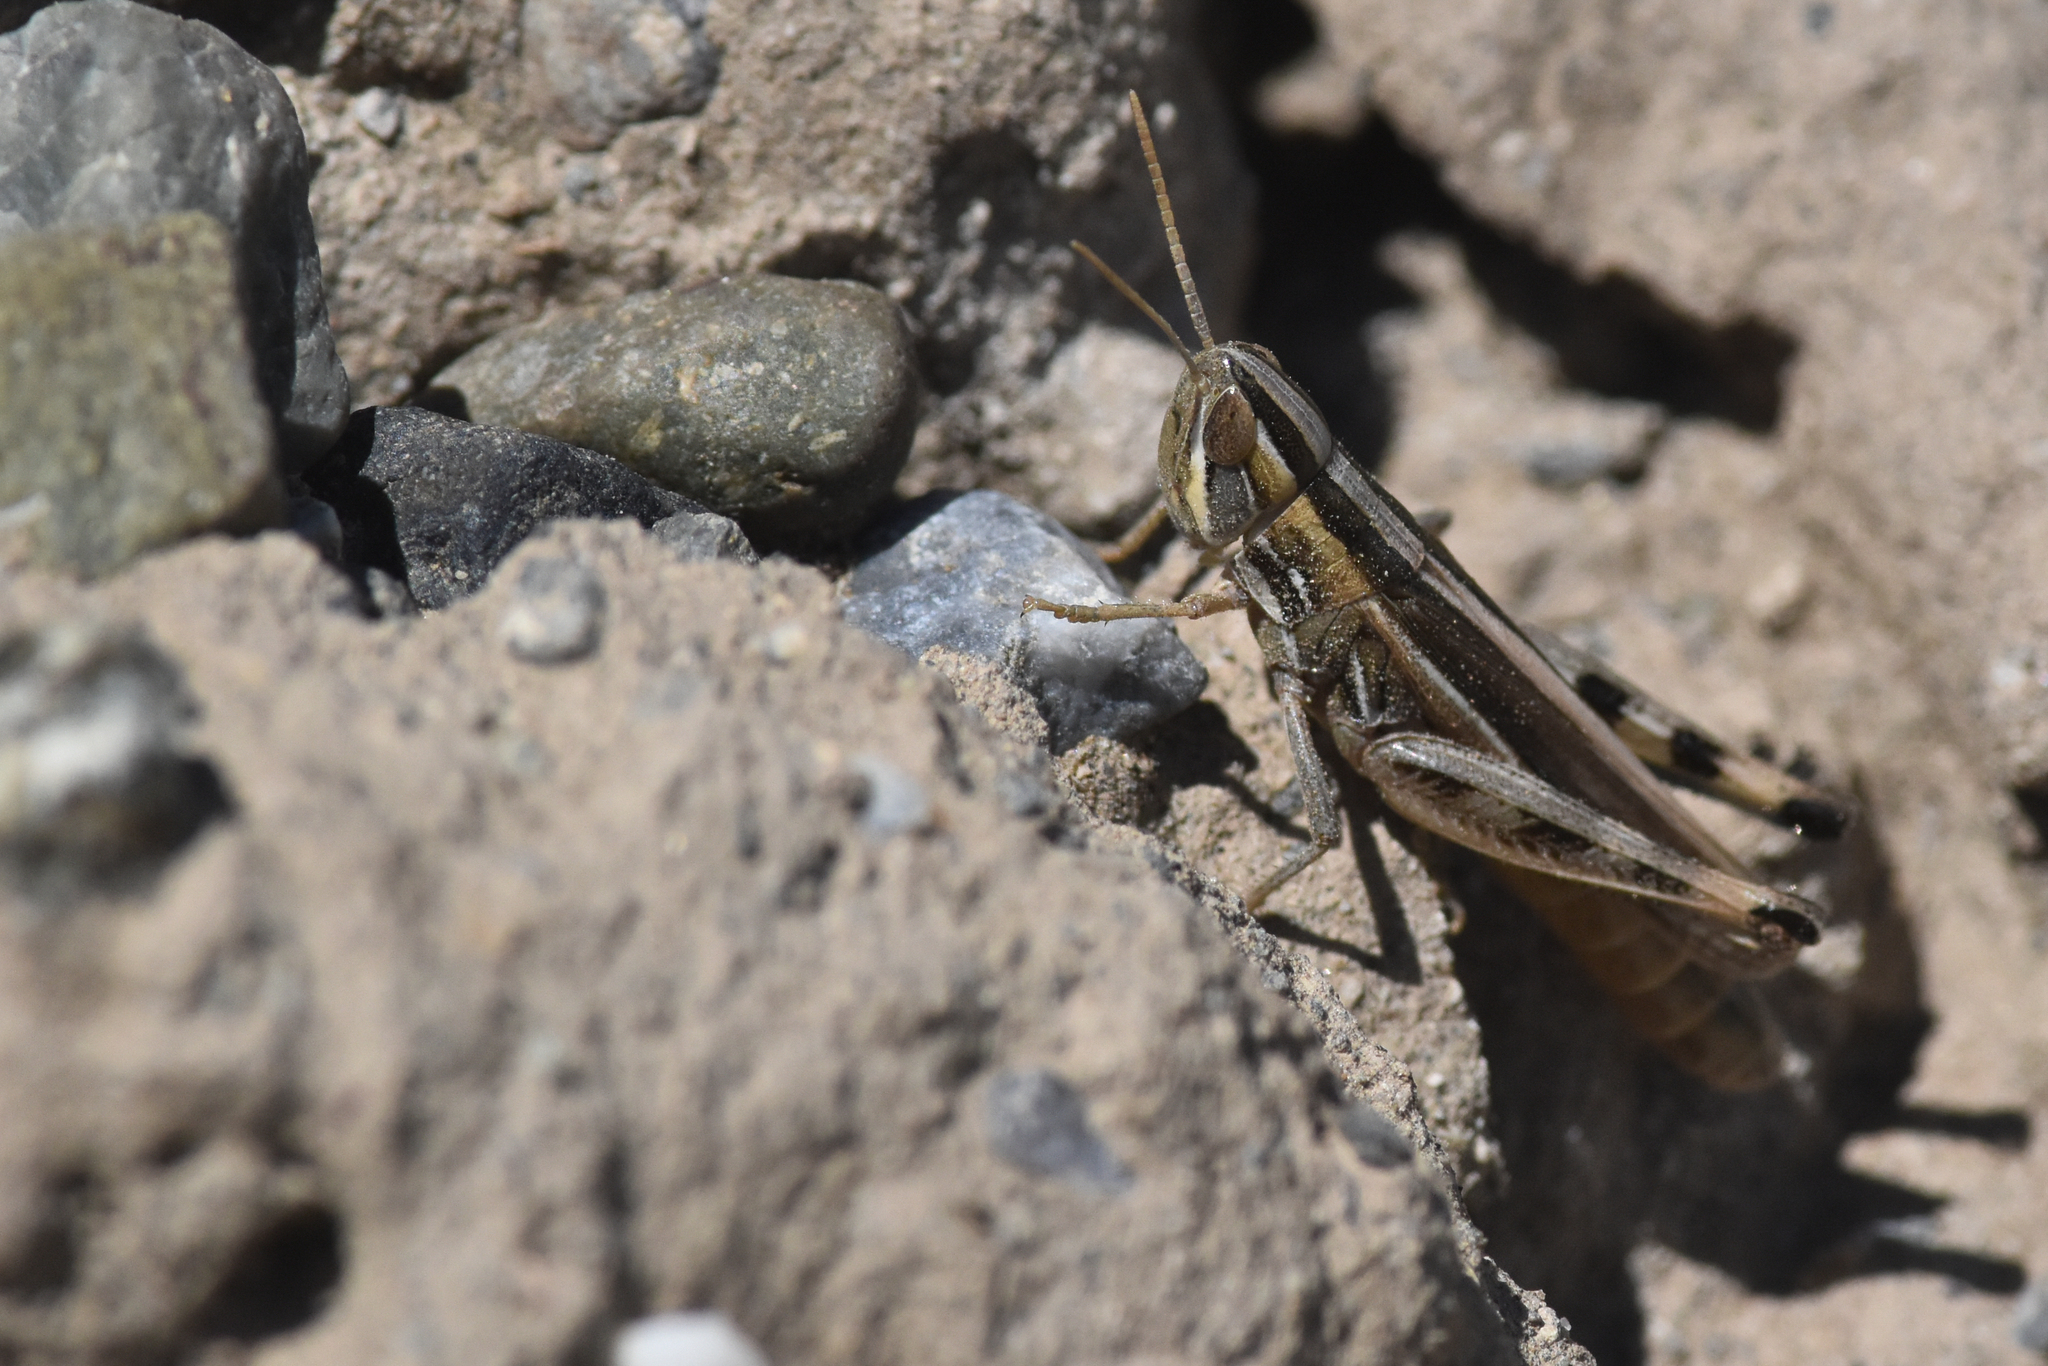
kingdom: Animalia
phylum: Arthropoda
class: Insecta
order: Orthoptera
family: Acrididae
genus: Amphitornus
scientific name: Amphitornus coloradus
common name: Striped grasshopper
